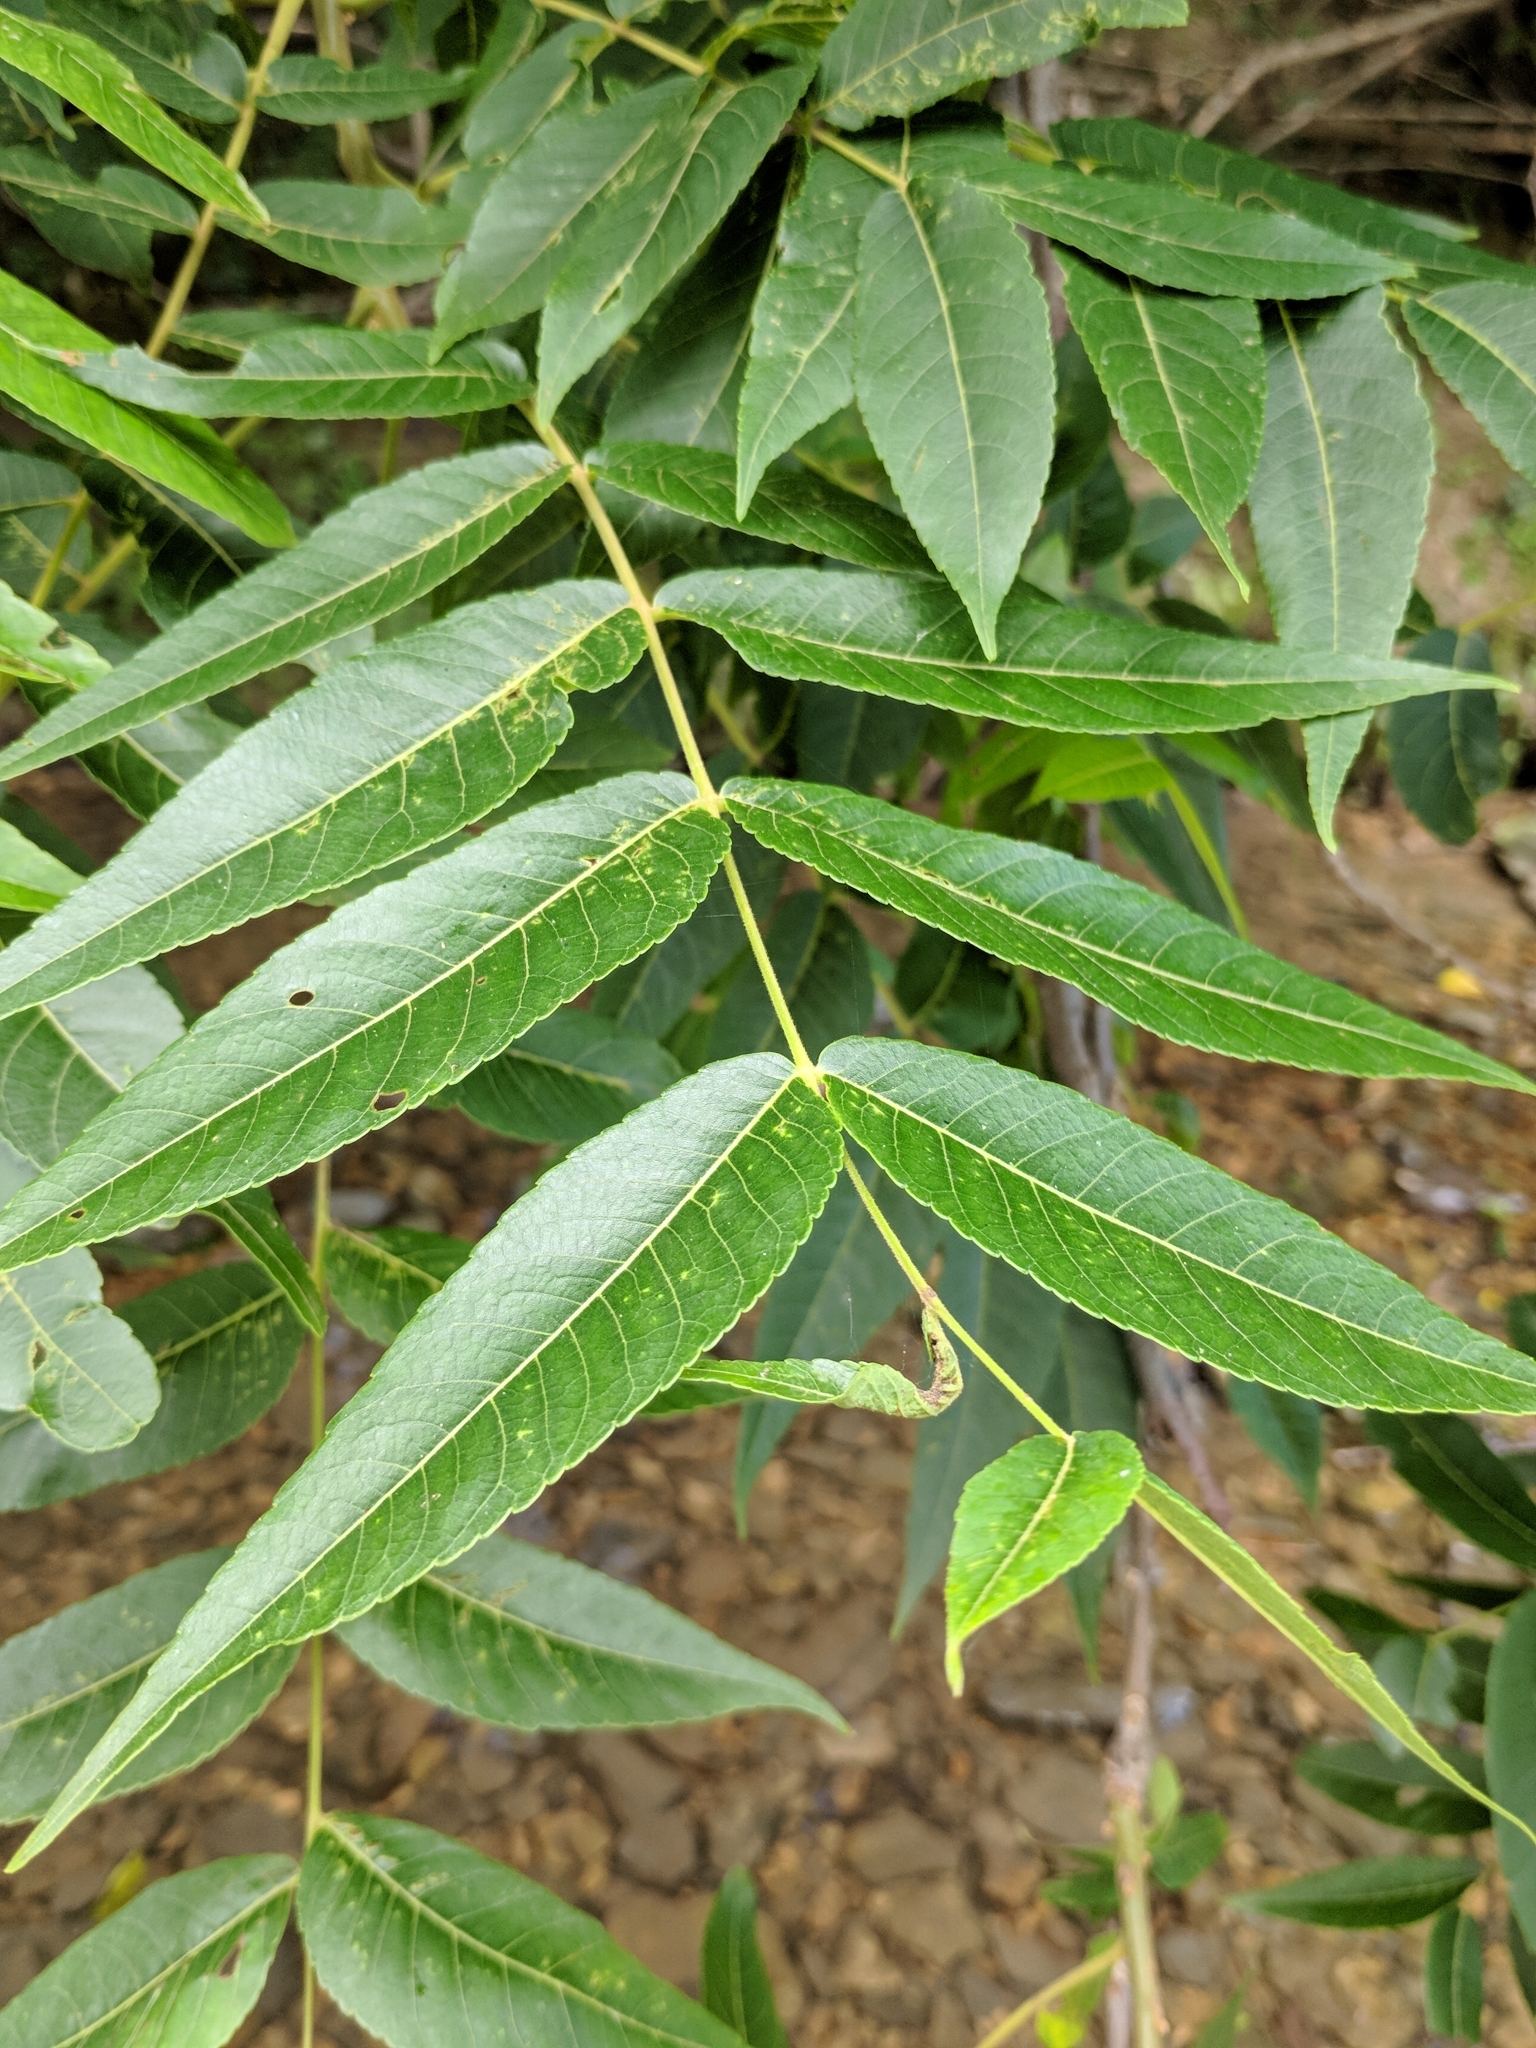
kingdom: Plantae
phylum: Tracheophyta
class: Magnoliopsida
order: Fagales
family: Juglandaceae
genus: Juglans
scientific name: Juglans major
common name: Arizona walnut
